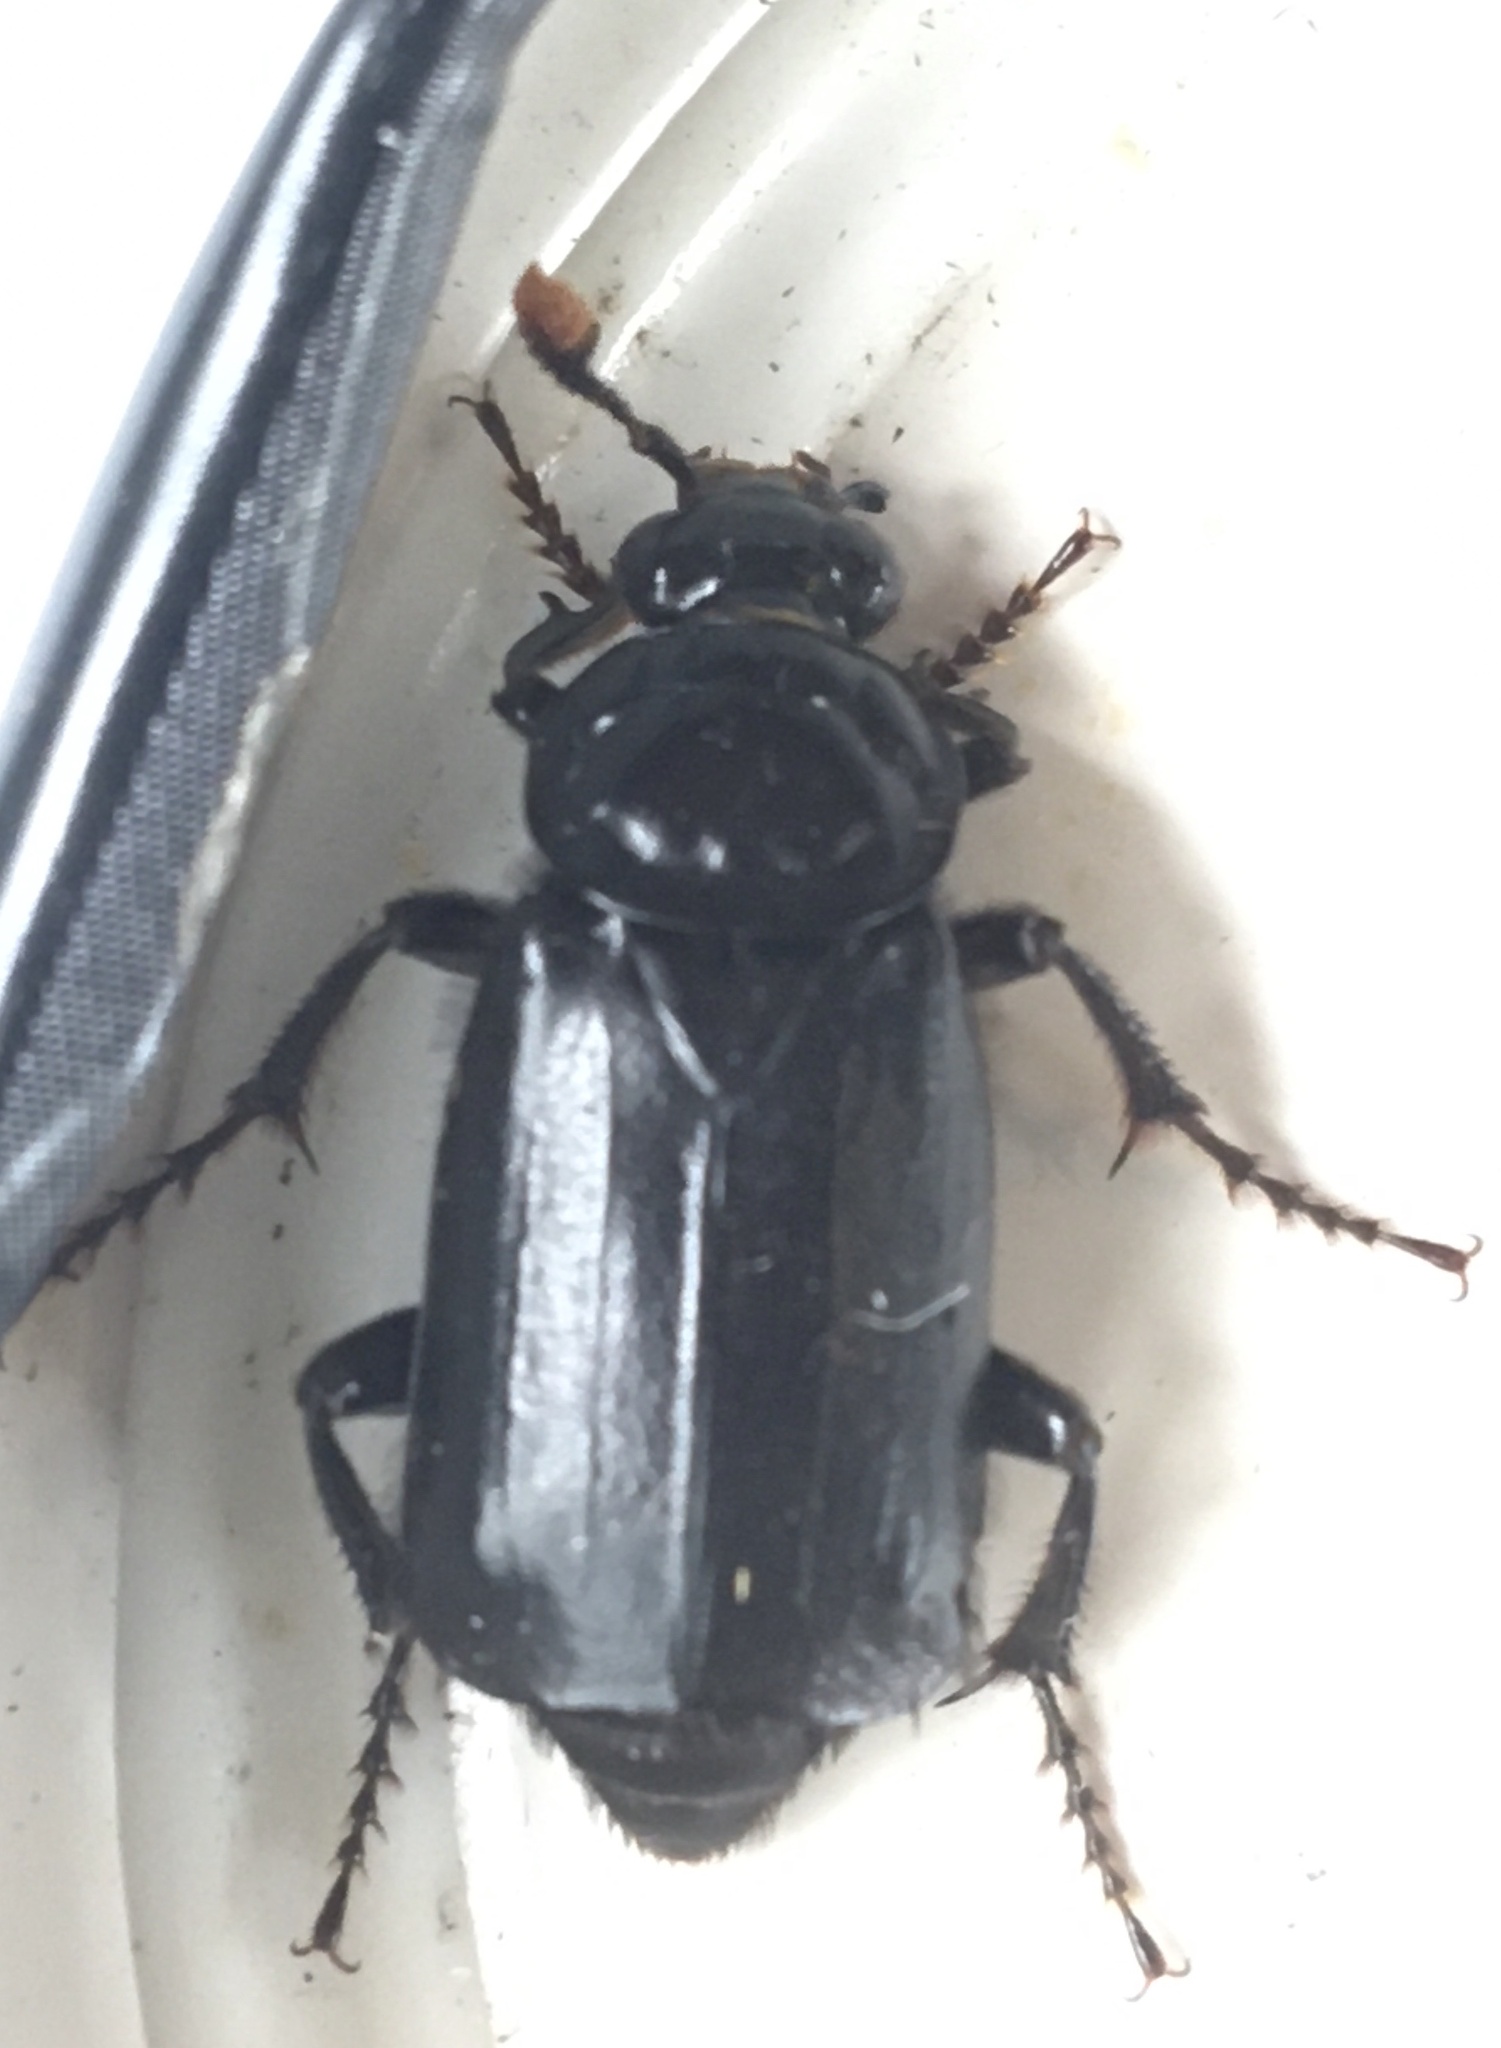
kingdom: Animalia
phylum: Arthropoda
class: Insecta
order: Coleoptera
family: Staphylinidae
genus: Nicrophorus
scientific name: Nicrophorus humator
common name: Black sexton beetle
